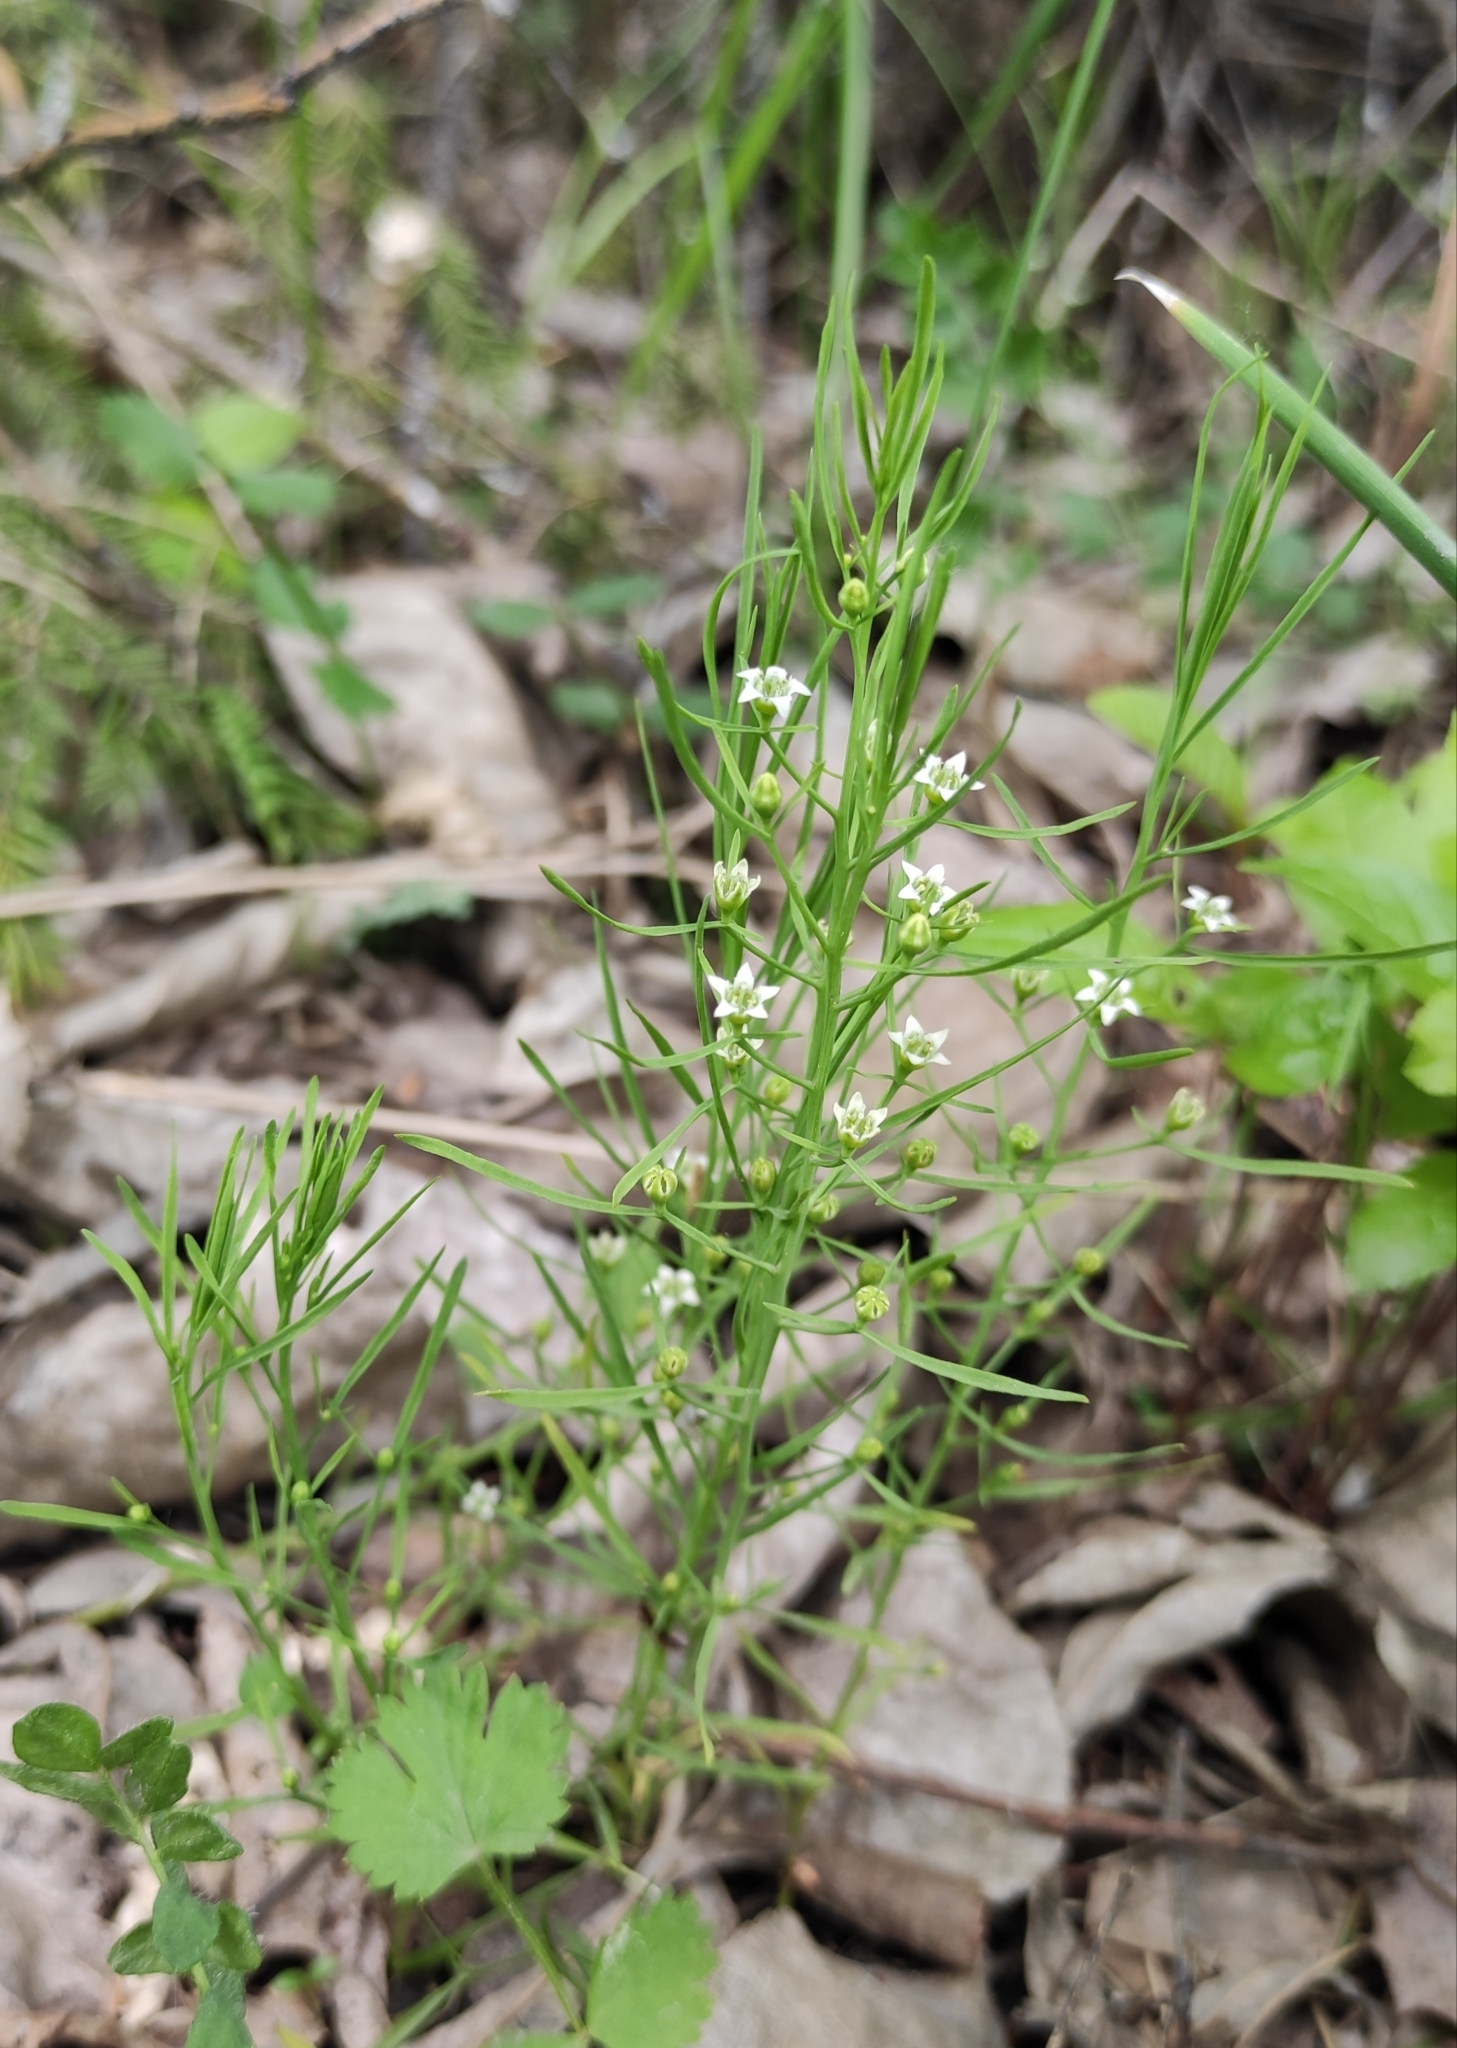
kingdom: Plantae
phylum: Tracheophyta
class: Magnoliopsida
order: Santalales
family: Thesiaceae
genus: Thesium
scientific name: Thesium repens
